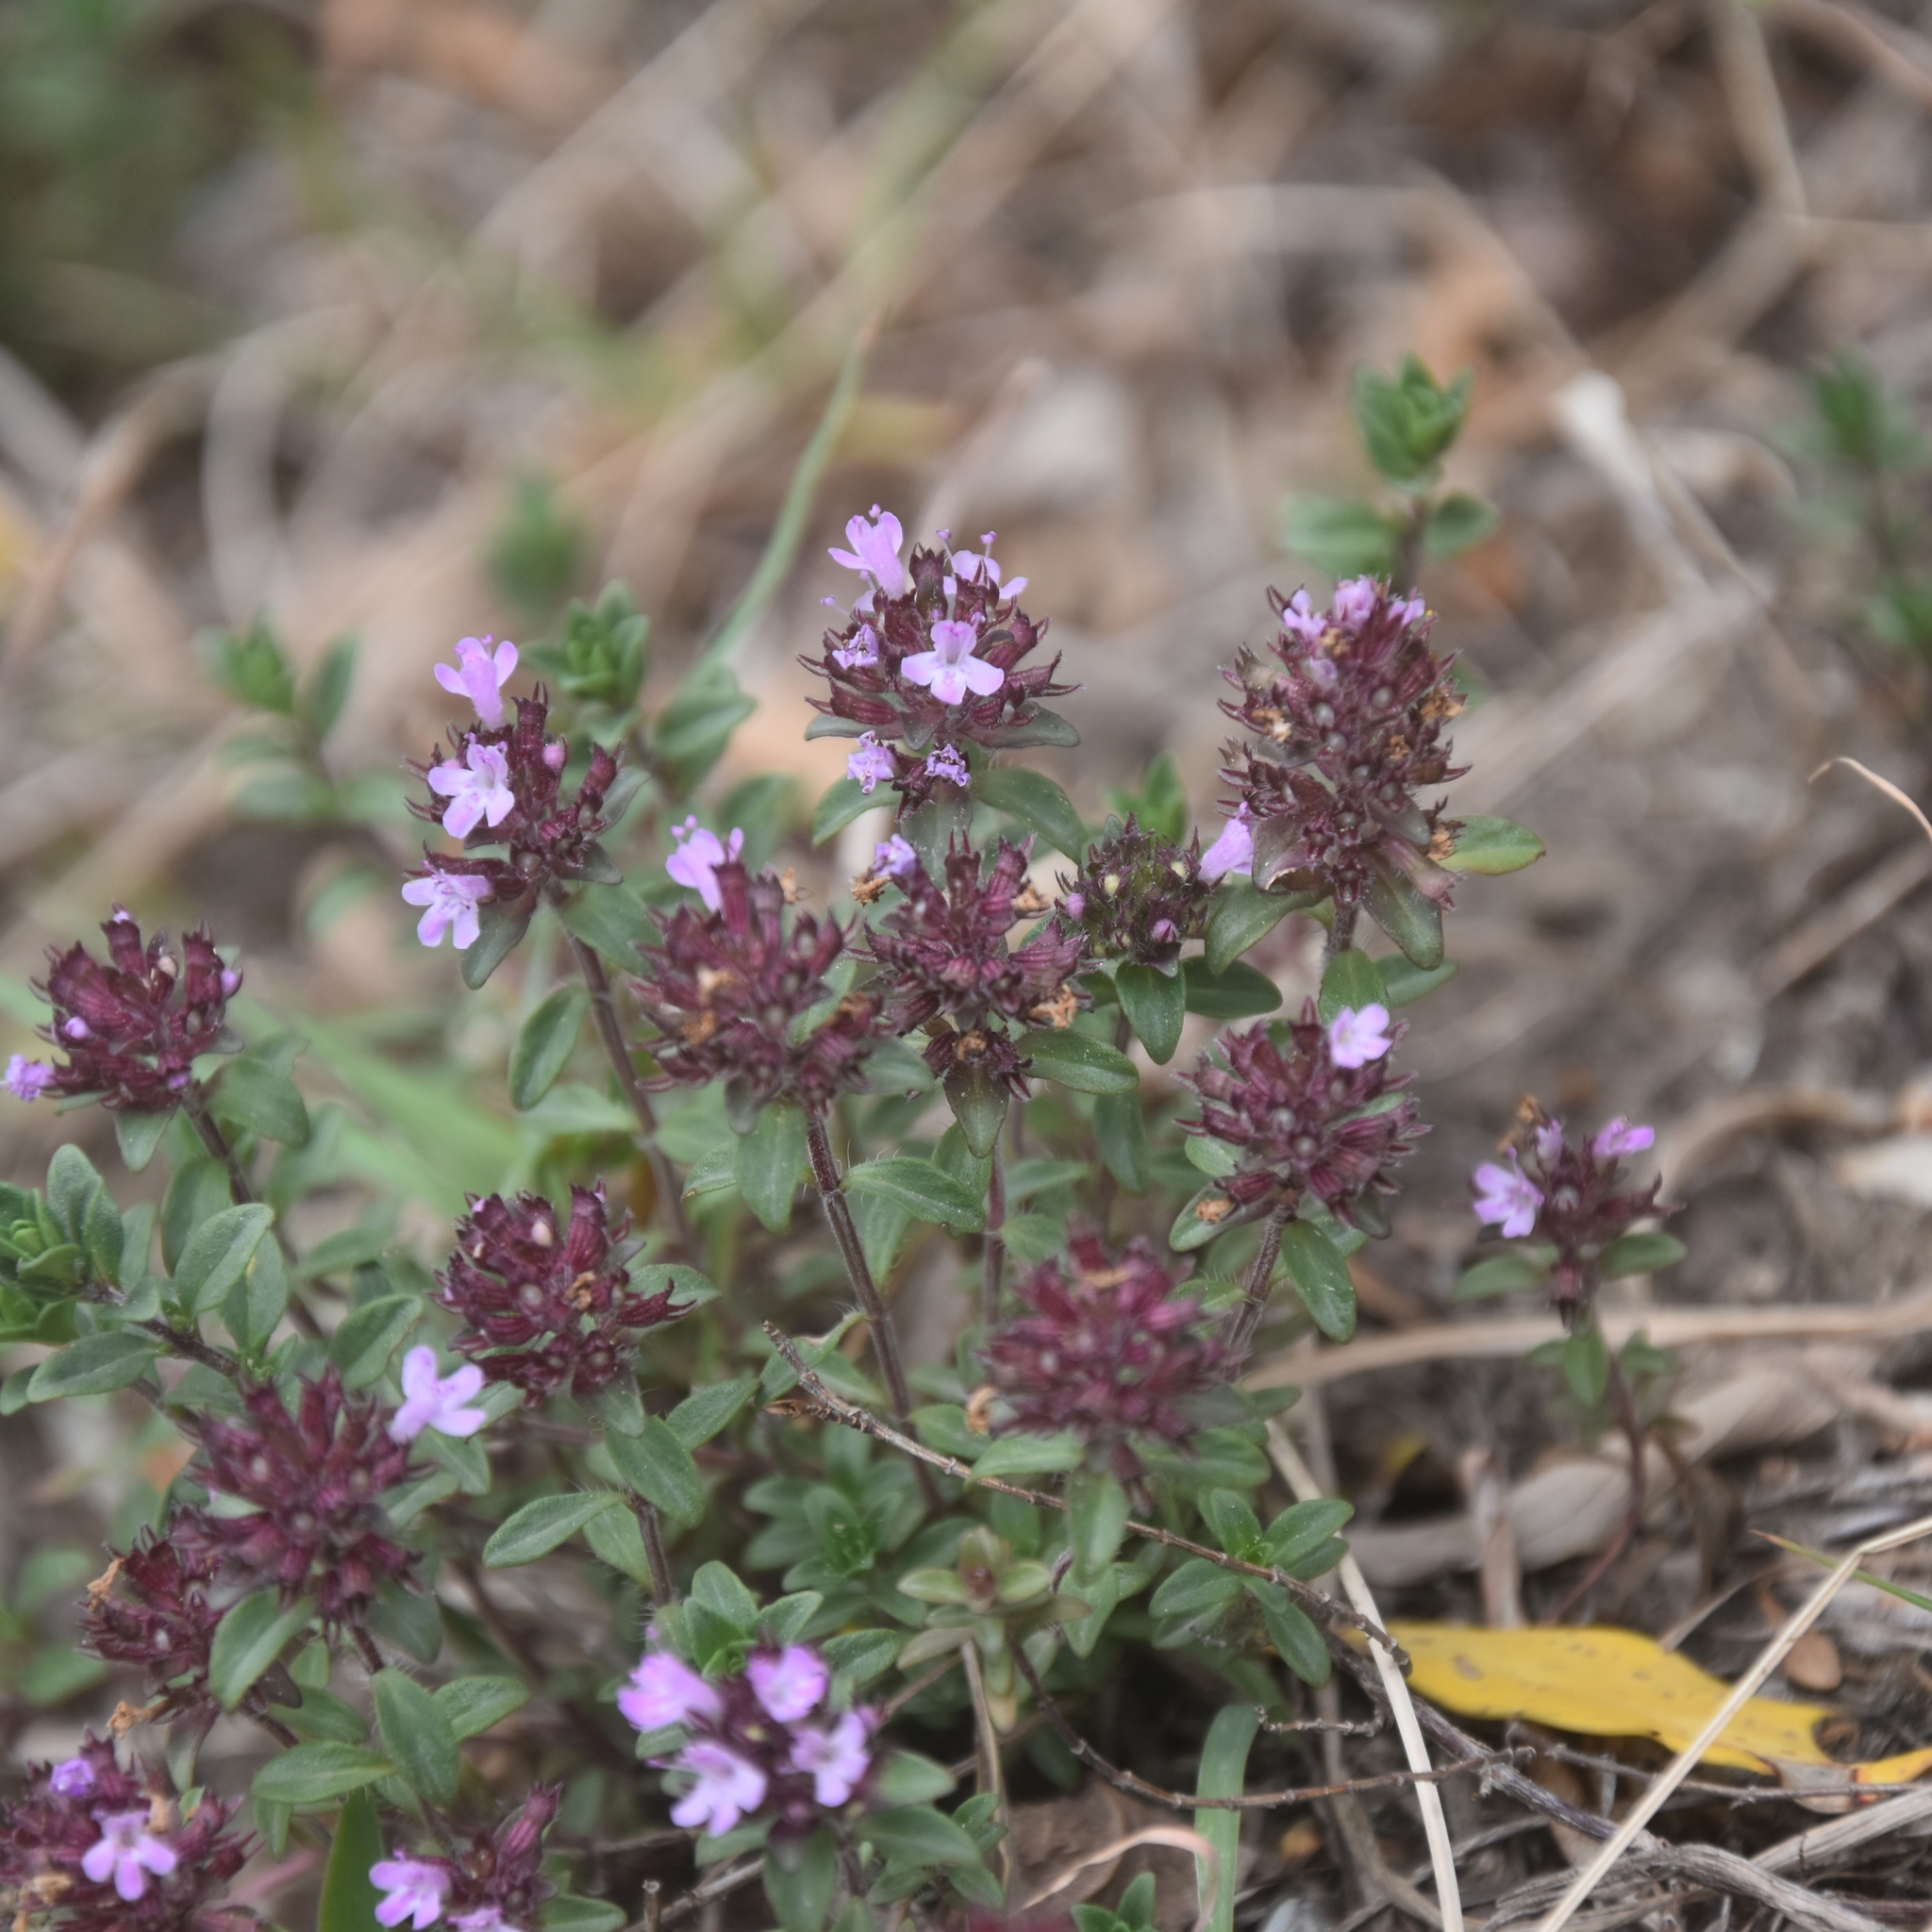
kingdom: Plantae
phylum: Tracheophyta
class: Magnoliopsida
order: Lamiales
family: Lamiaceae
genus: Thymus
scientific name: Thymus linearis
